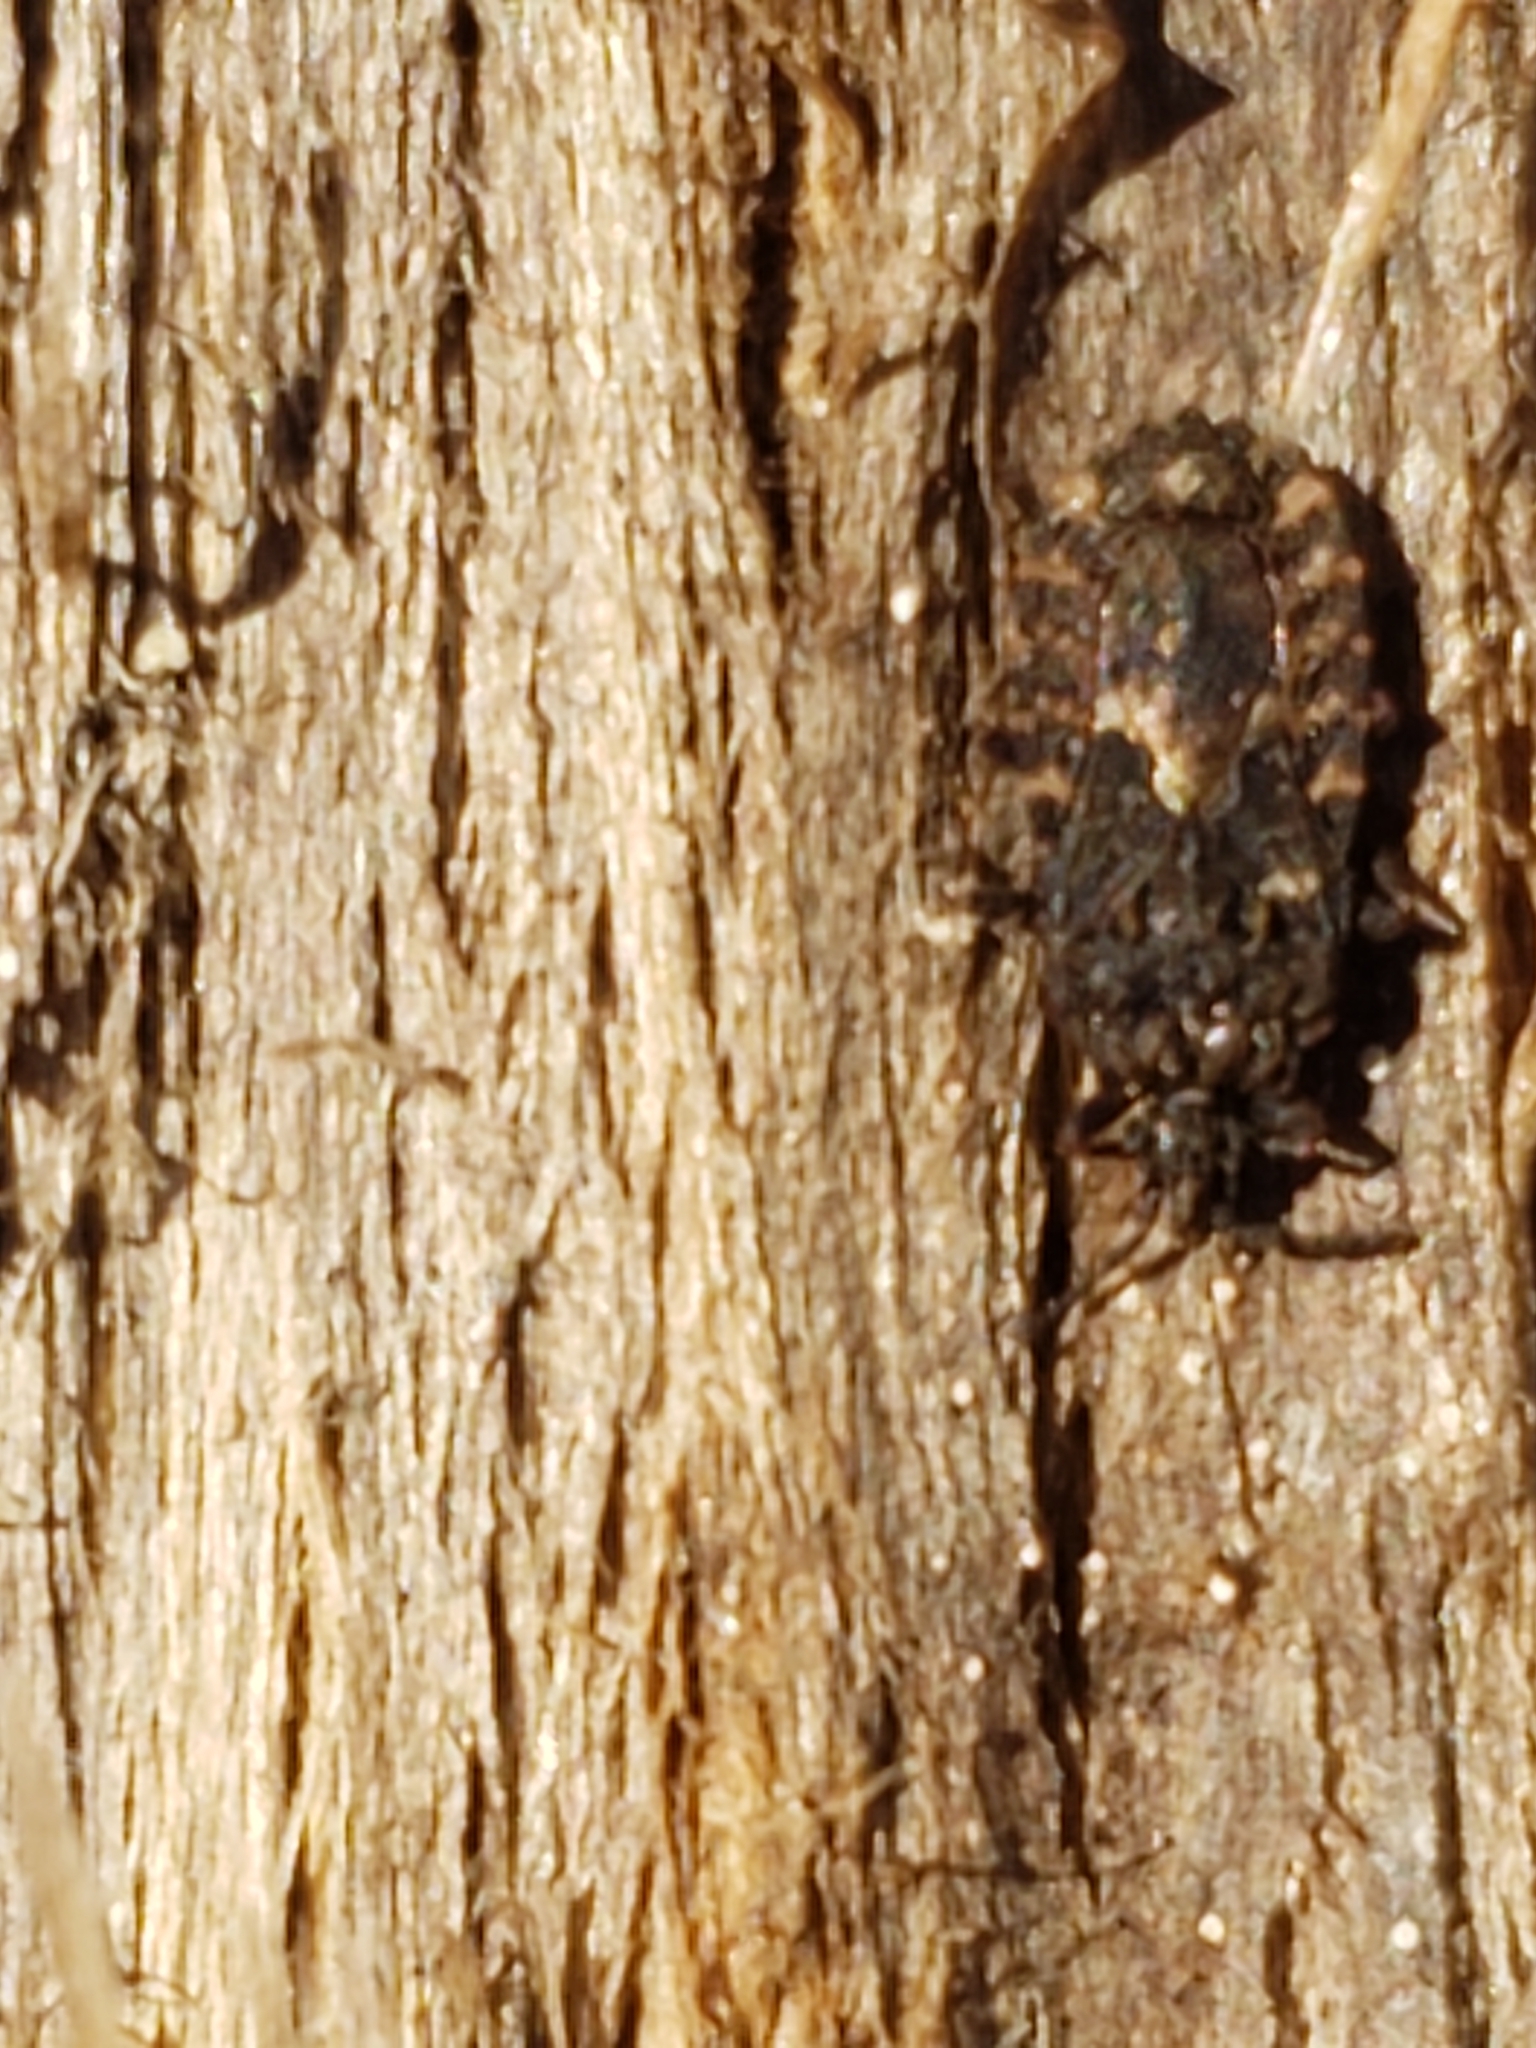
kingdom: Animalia
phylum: Arthropoda
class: Insecta
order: Hemiptera
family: Aradidae
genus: Mezira
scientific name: Mezira
